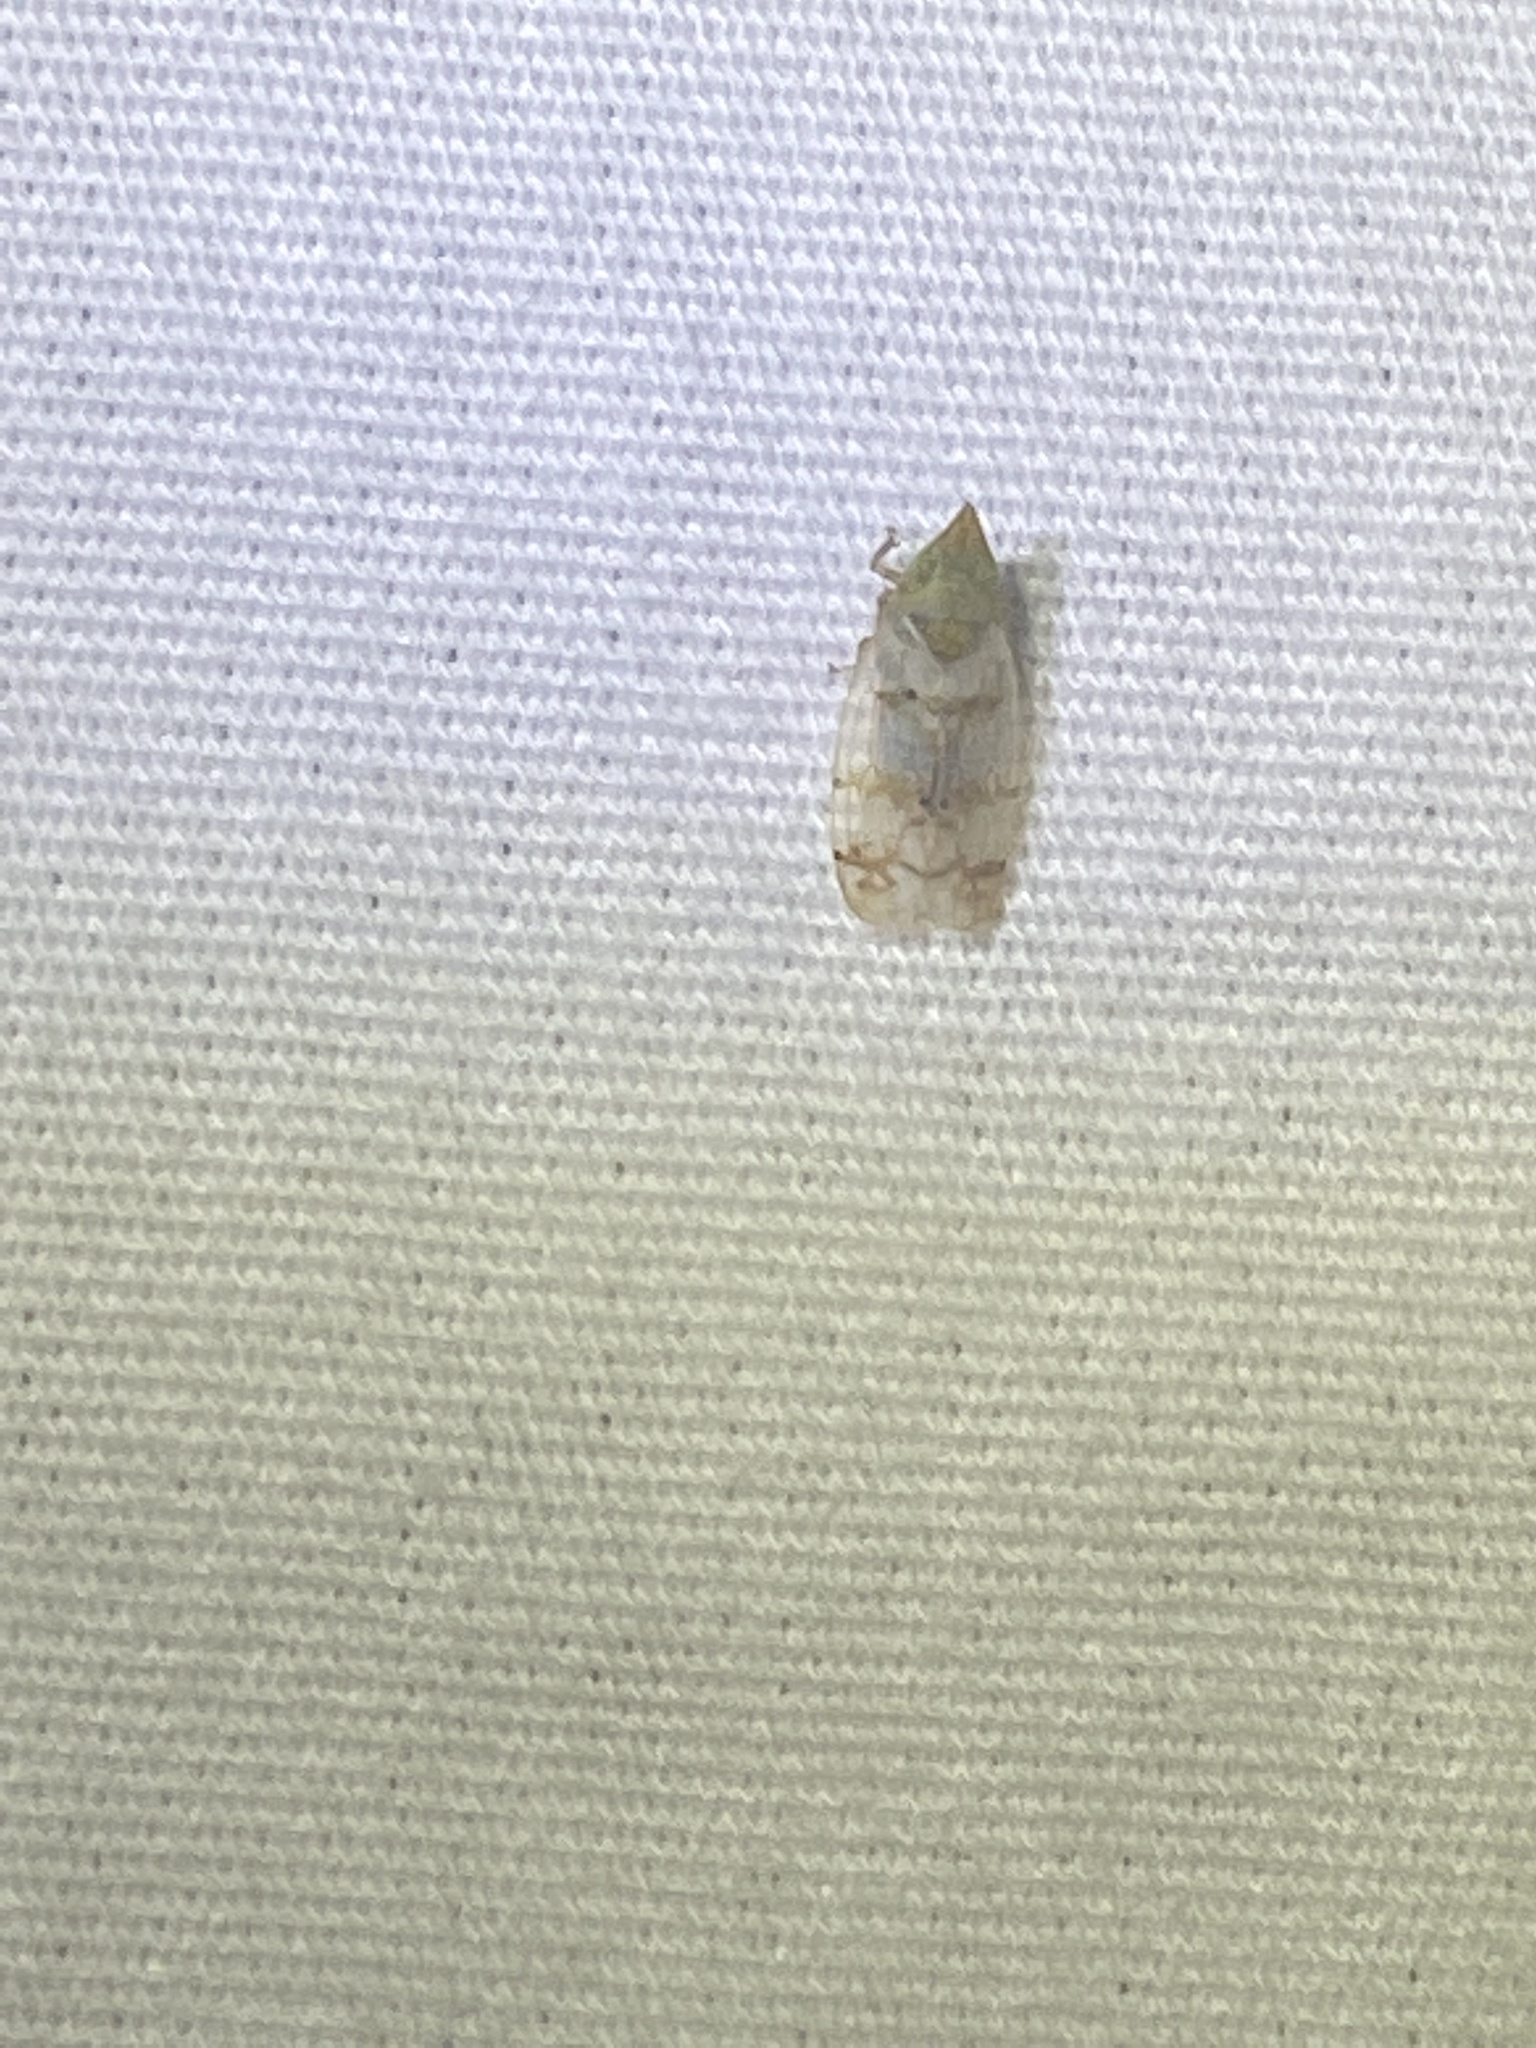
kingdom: Animalia
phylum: Arthropoda
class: Insecta
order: Hemiptera
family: Cicadellidae
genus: Japananus
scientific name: Japananus hyalinus
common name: The japanese maple leafhopper
